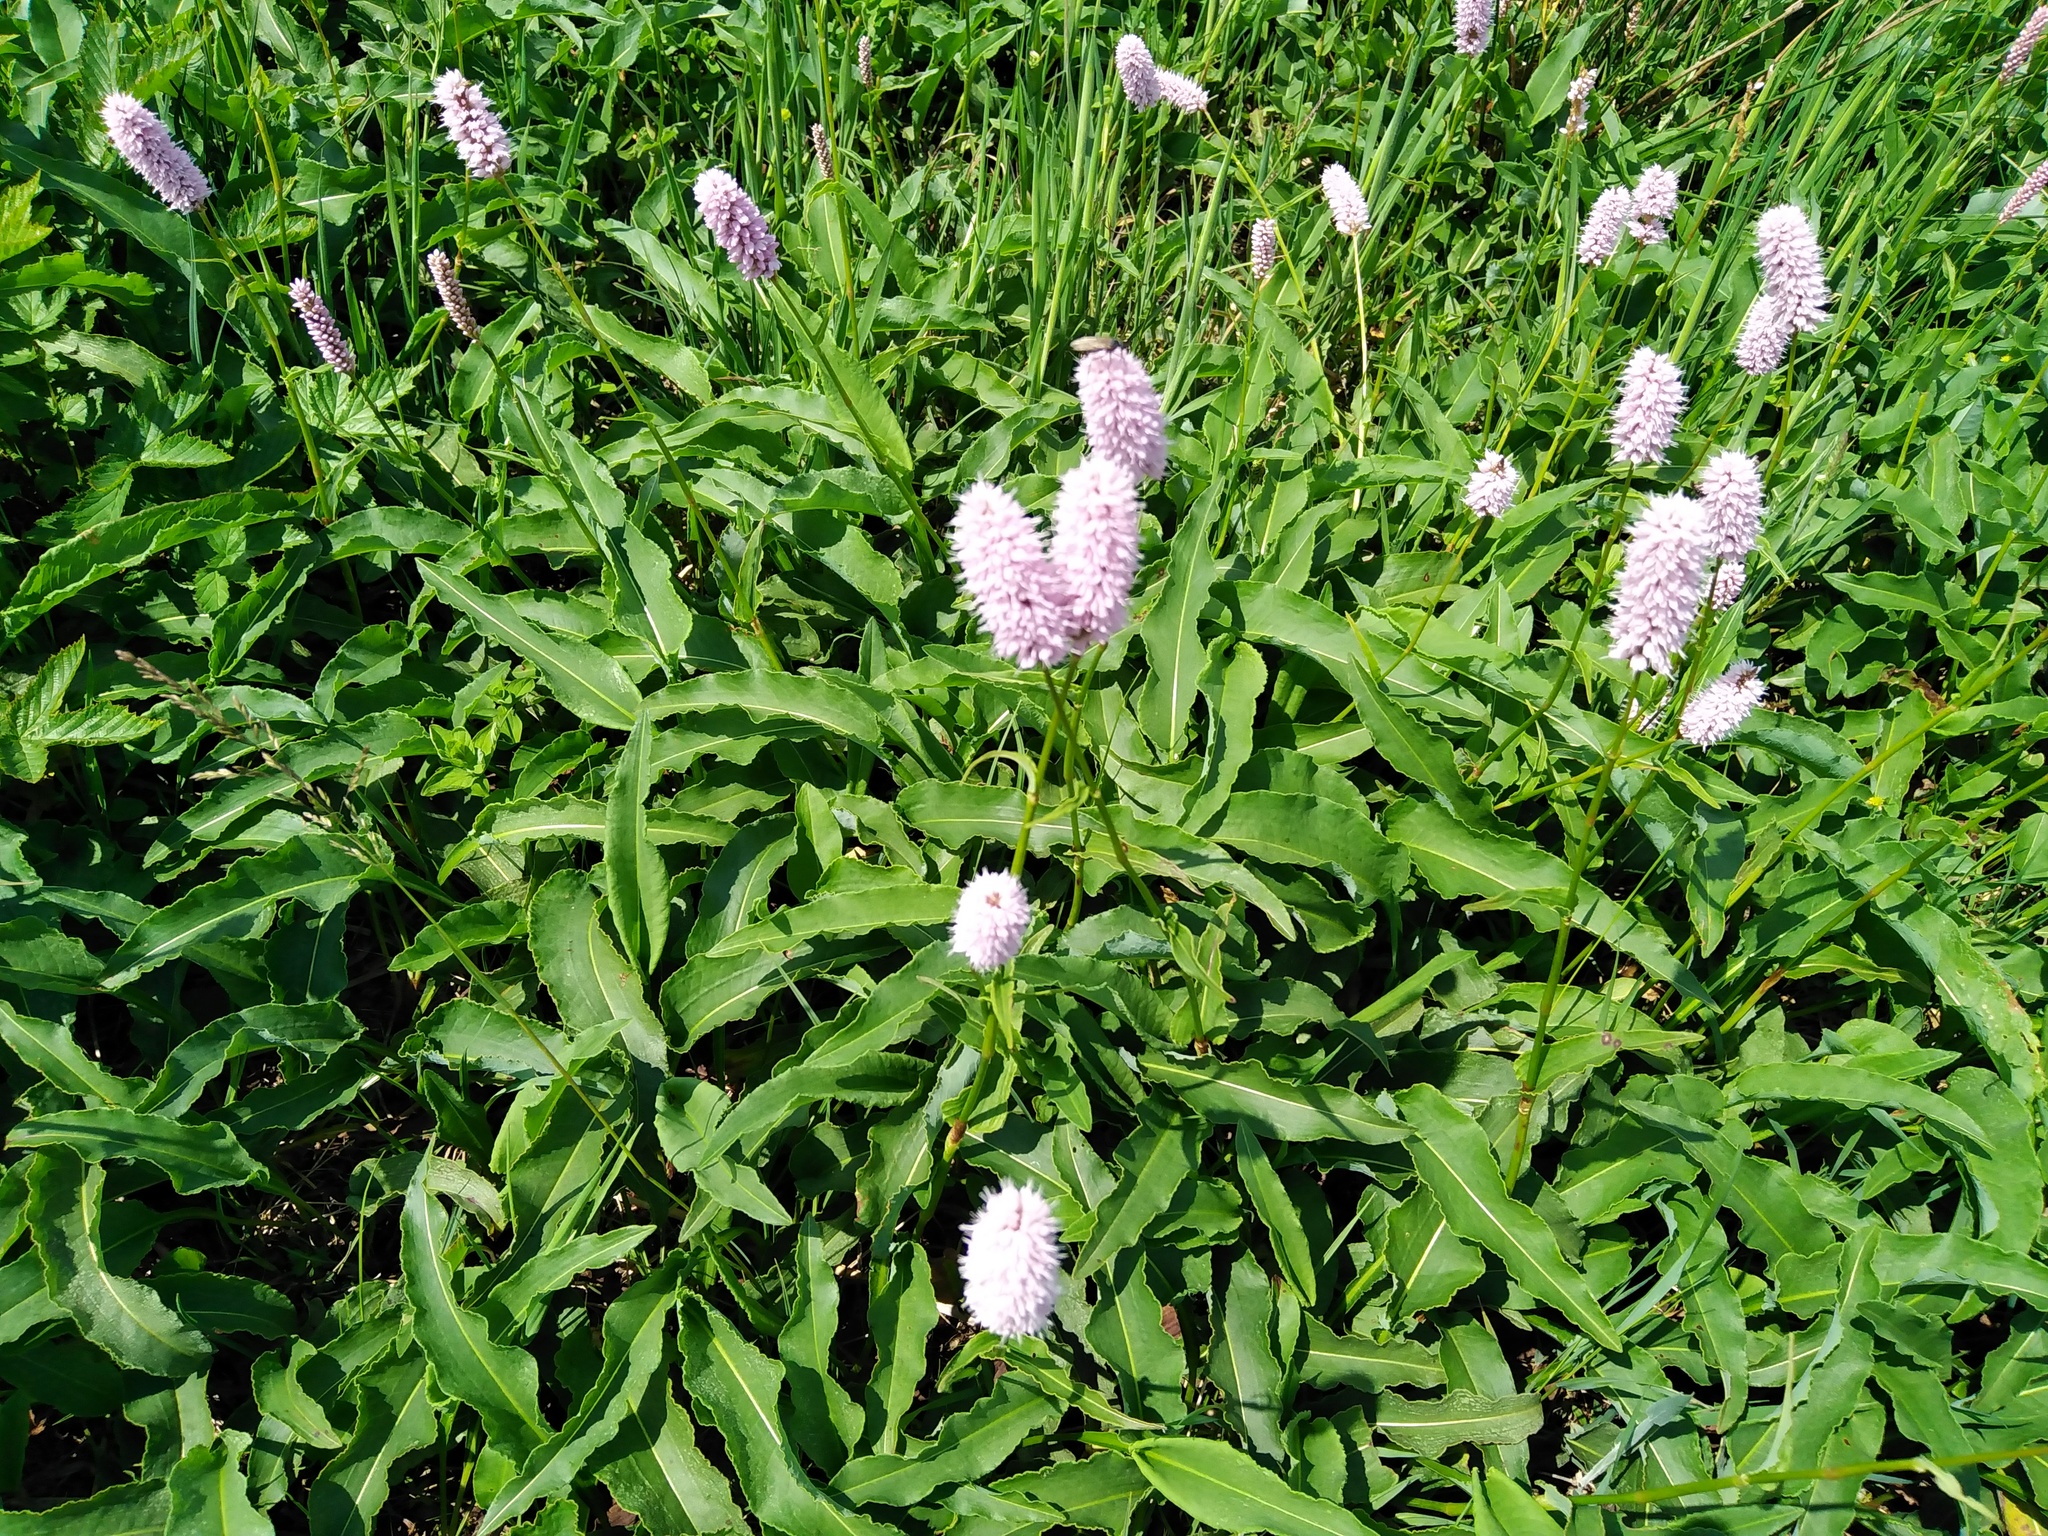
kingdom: Plantae
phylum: Tracheophyta
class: Magnoliopsida
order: Caryophyllales
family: Polygonaceae
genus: Bistorta
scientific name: Bistorta officinalis
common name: Common bistort
